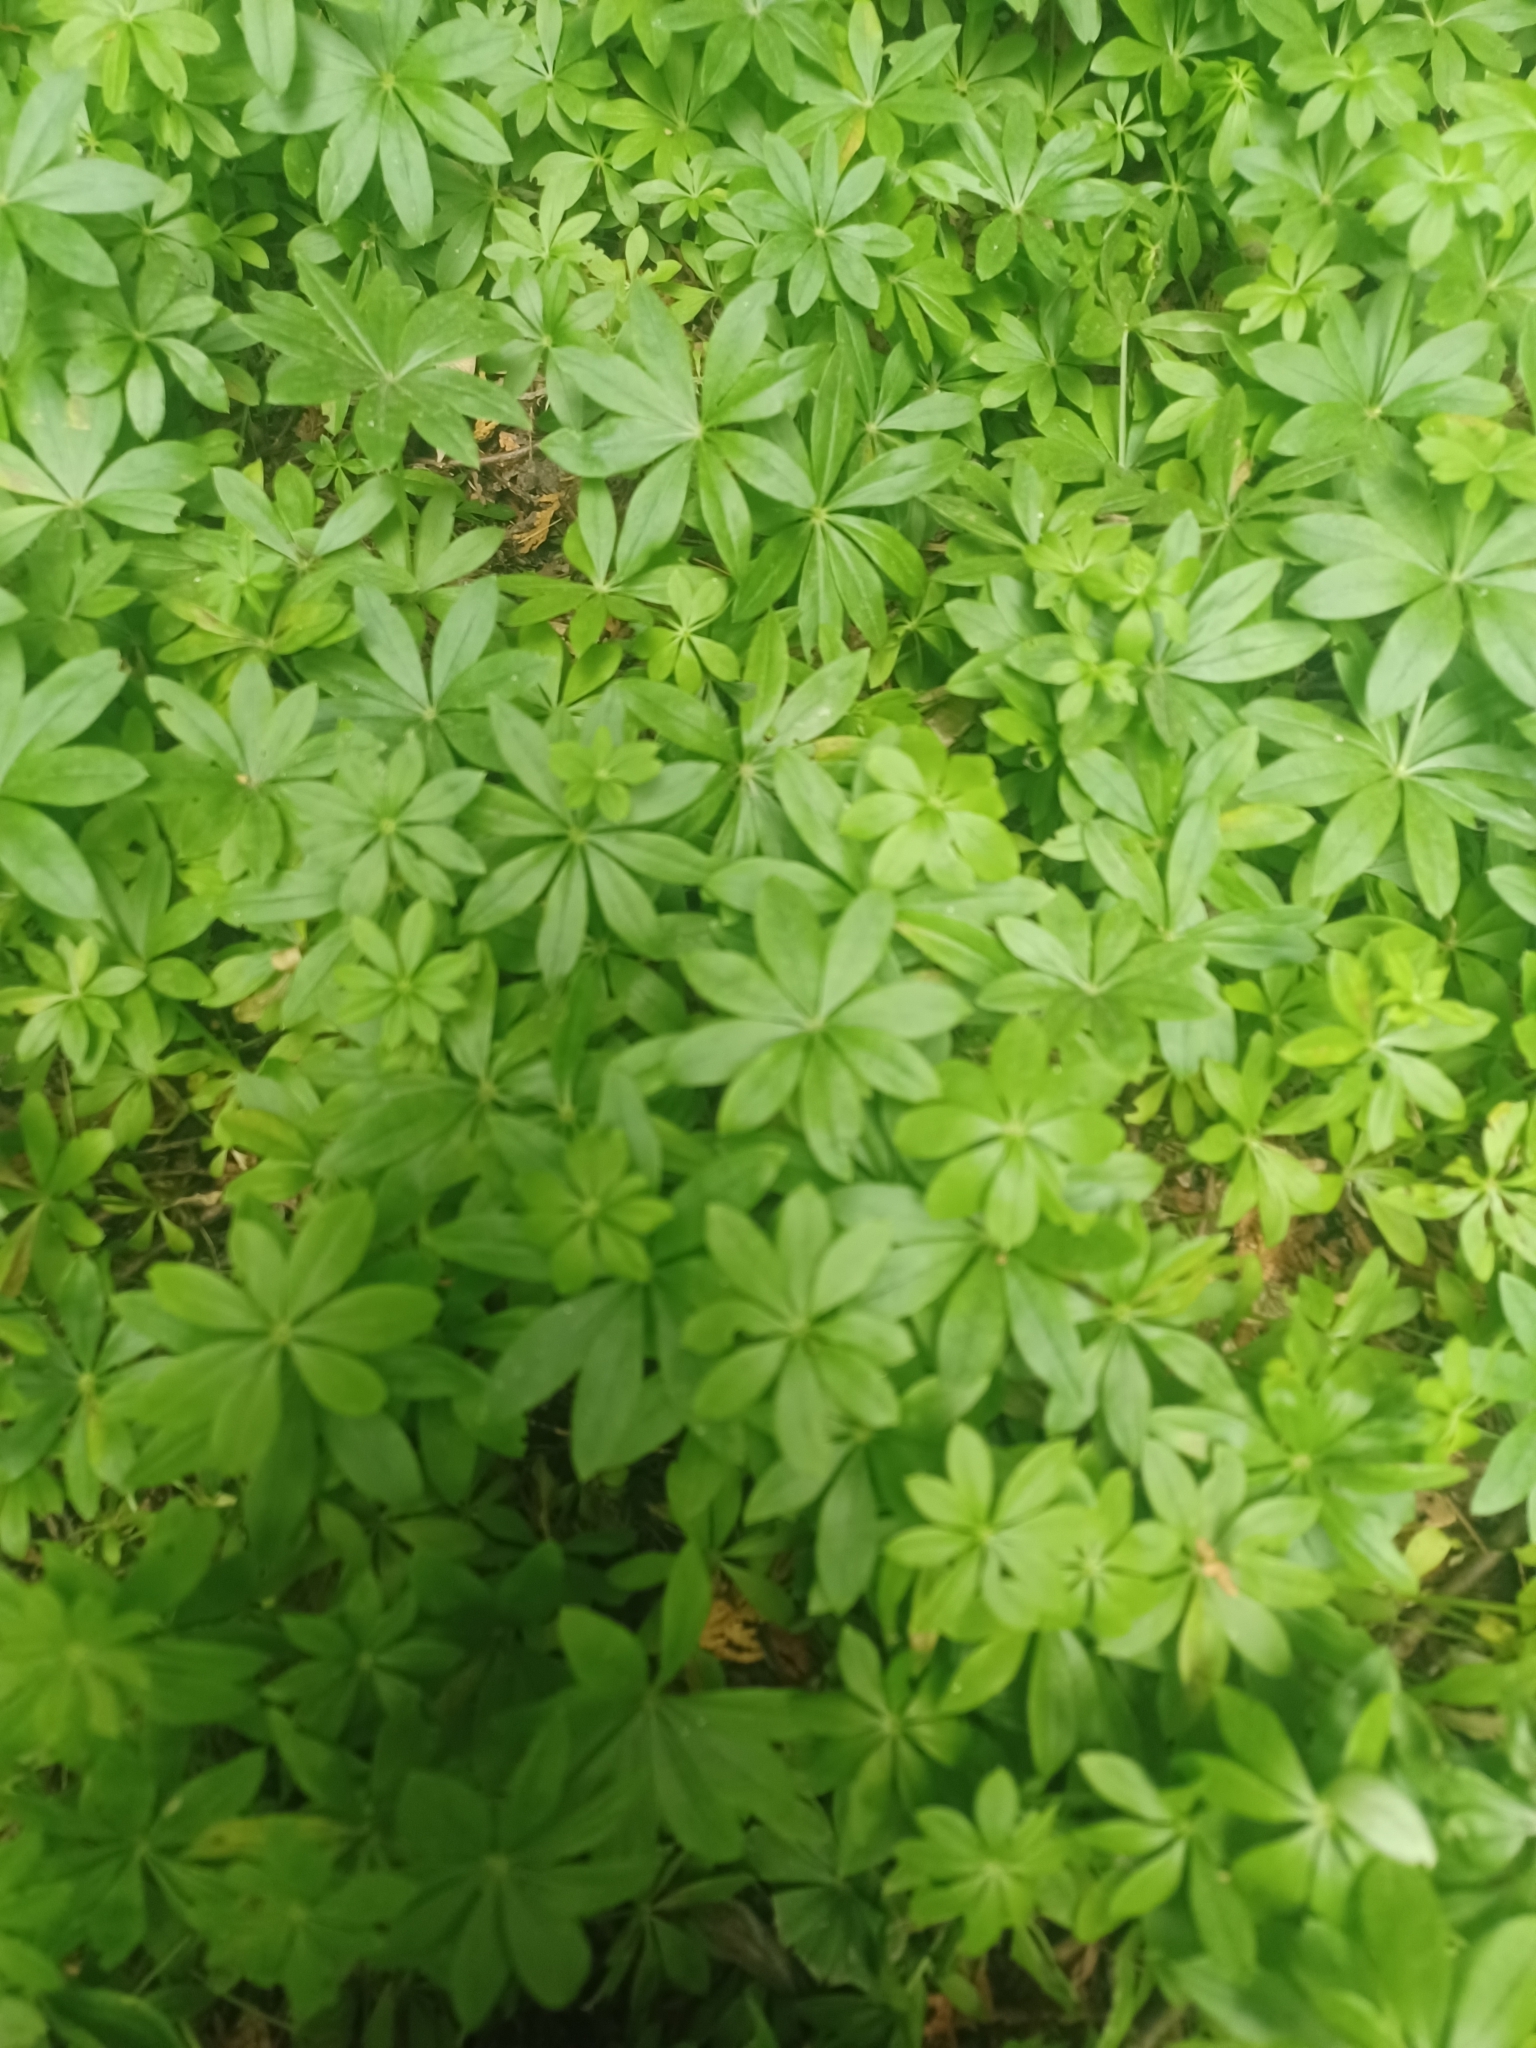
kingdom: Plantae
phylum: Tracheophyta
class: Magnoliopsida
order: Gentianales
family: Rubiaceae
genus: Galium
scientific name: Galium odoratum
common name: Sweet woodruff
